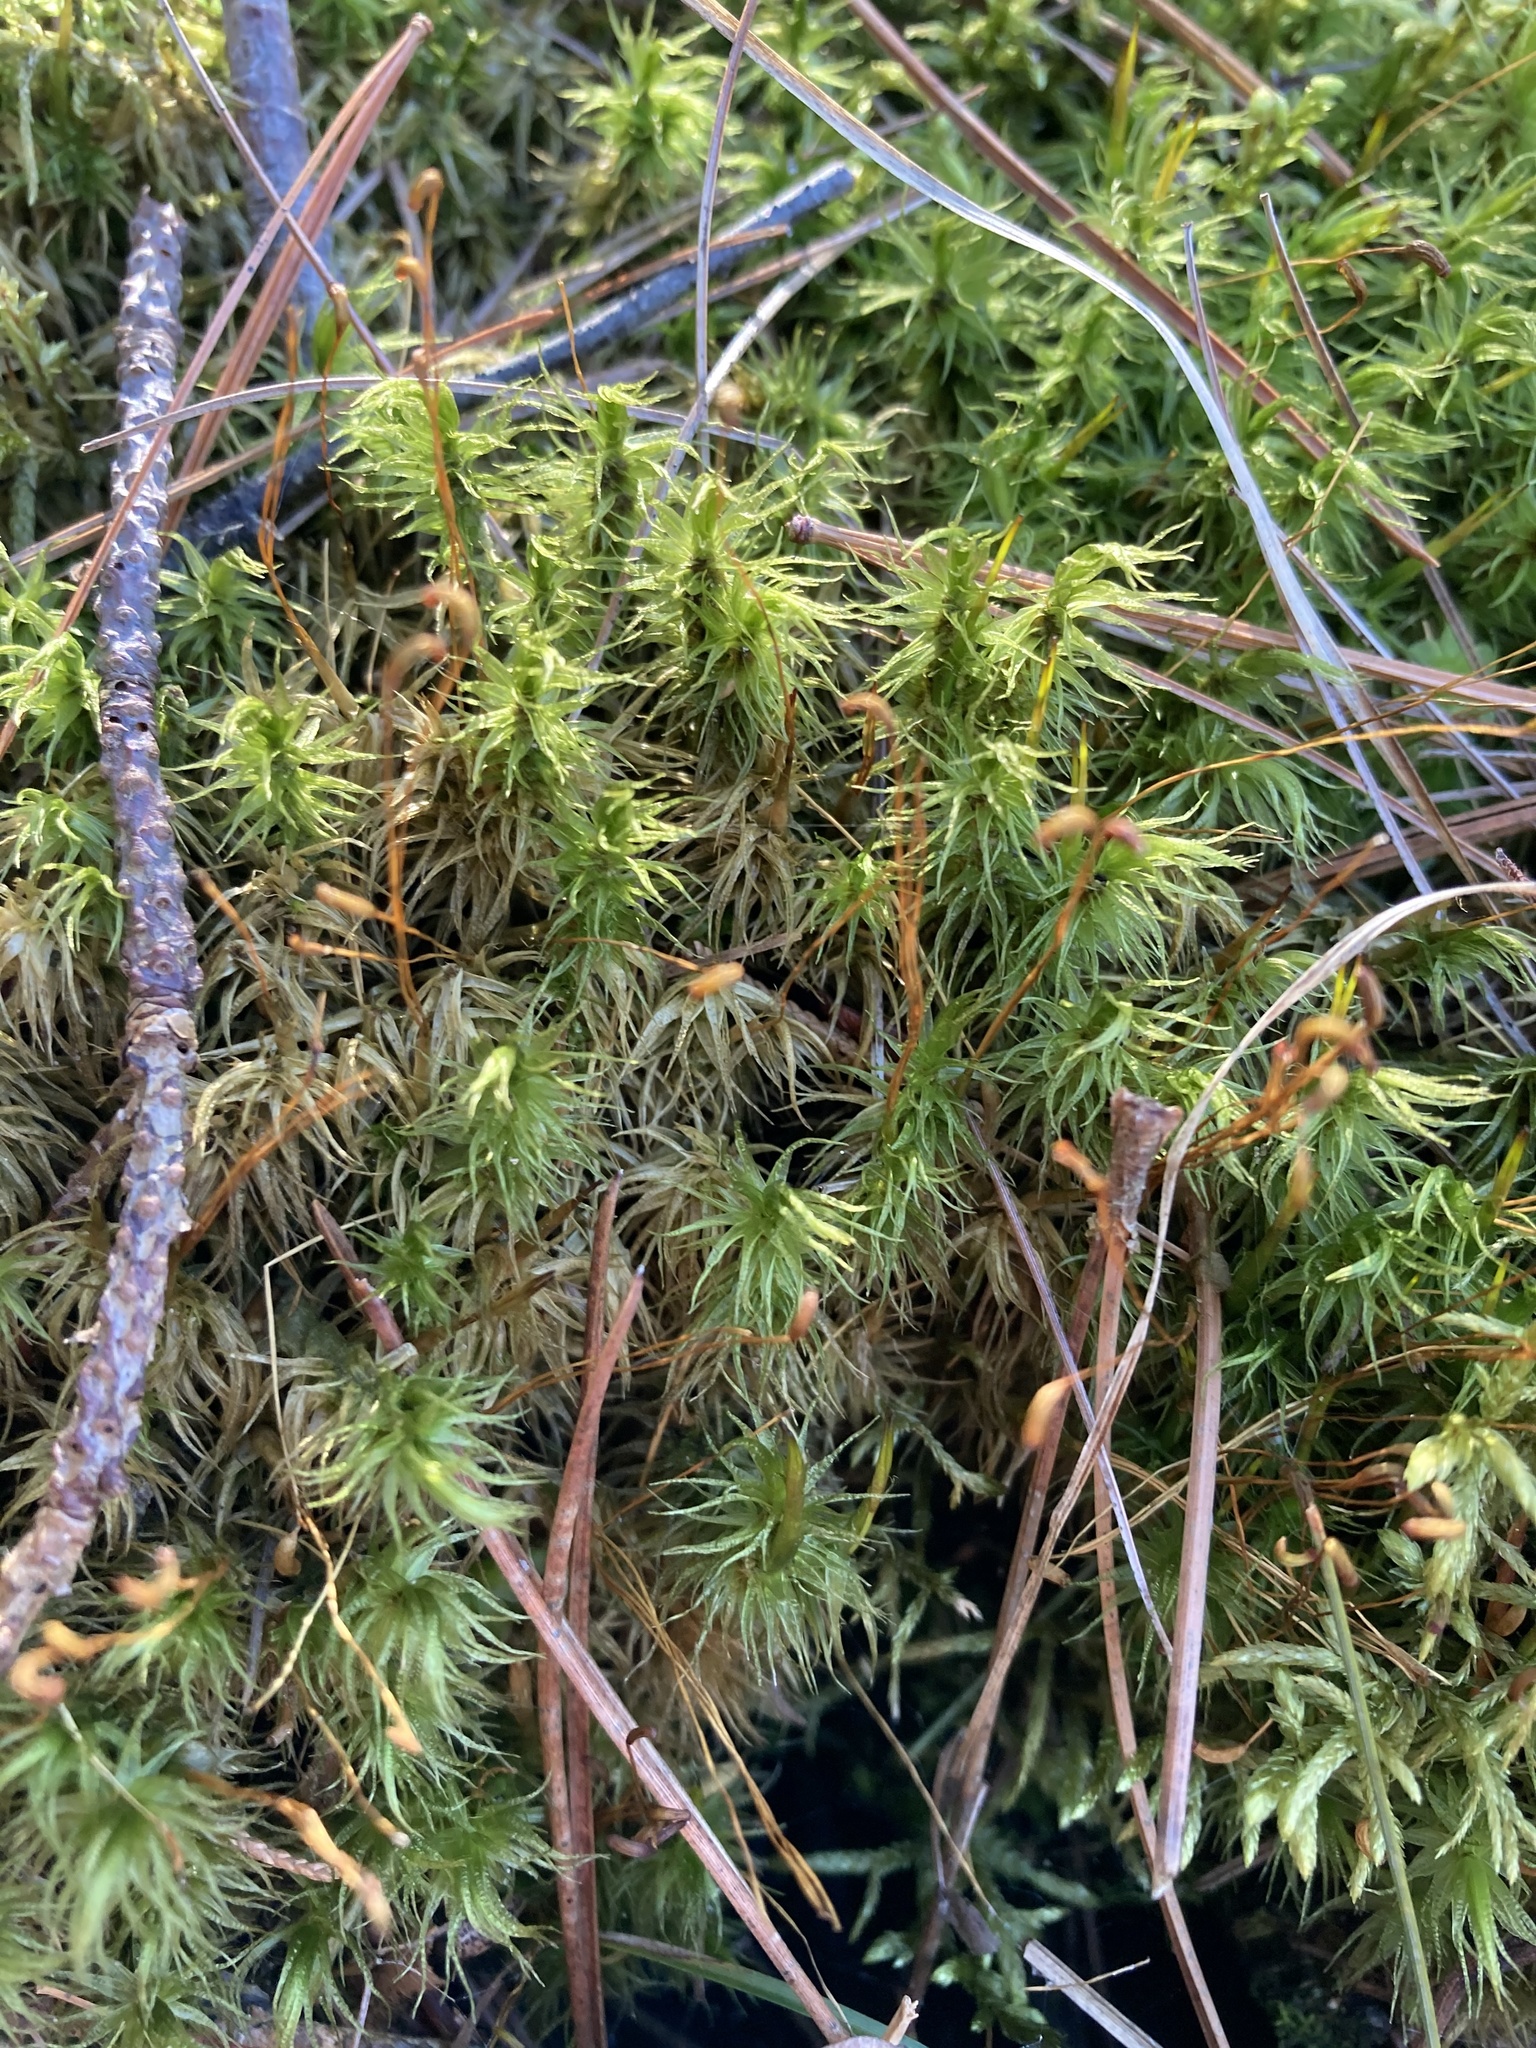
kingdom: Plantae
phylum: Bryophyta
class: Bryopsida
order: Dicranales
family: Dicranaceae
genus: Dicranum
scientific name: Dicranum polysetum
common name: Rugose fork-moss
